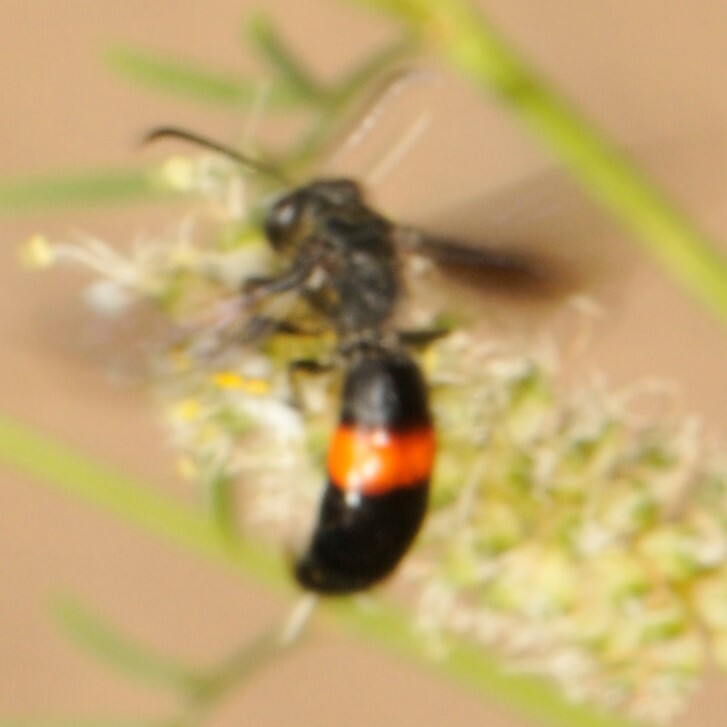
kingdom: Animalia
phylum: Arthropoda
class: Insecta
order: Hymenoptera
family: Crabronidae
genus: Stizoides
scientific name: Stizoides renicinctus
